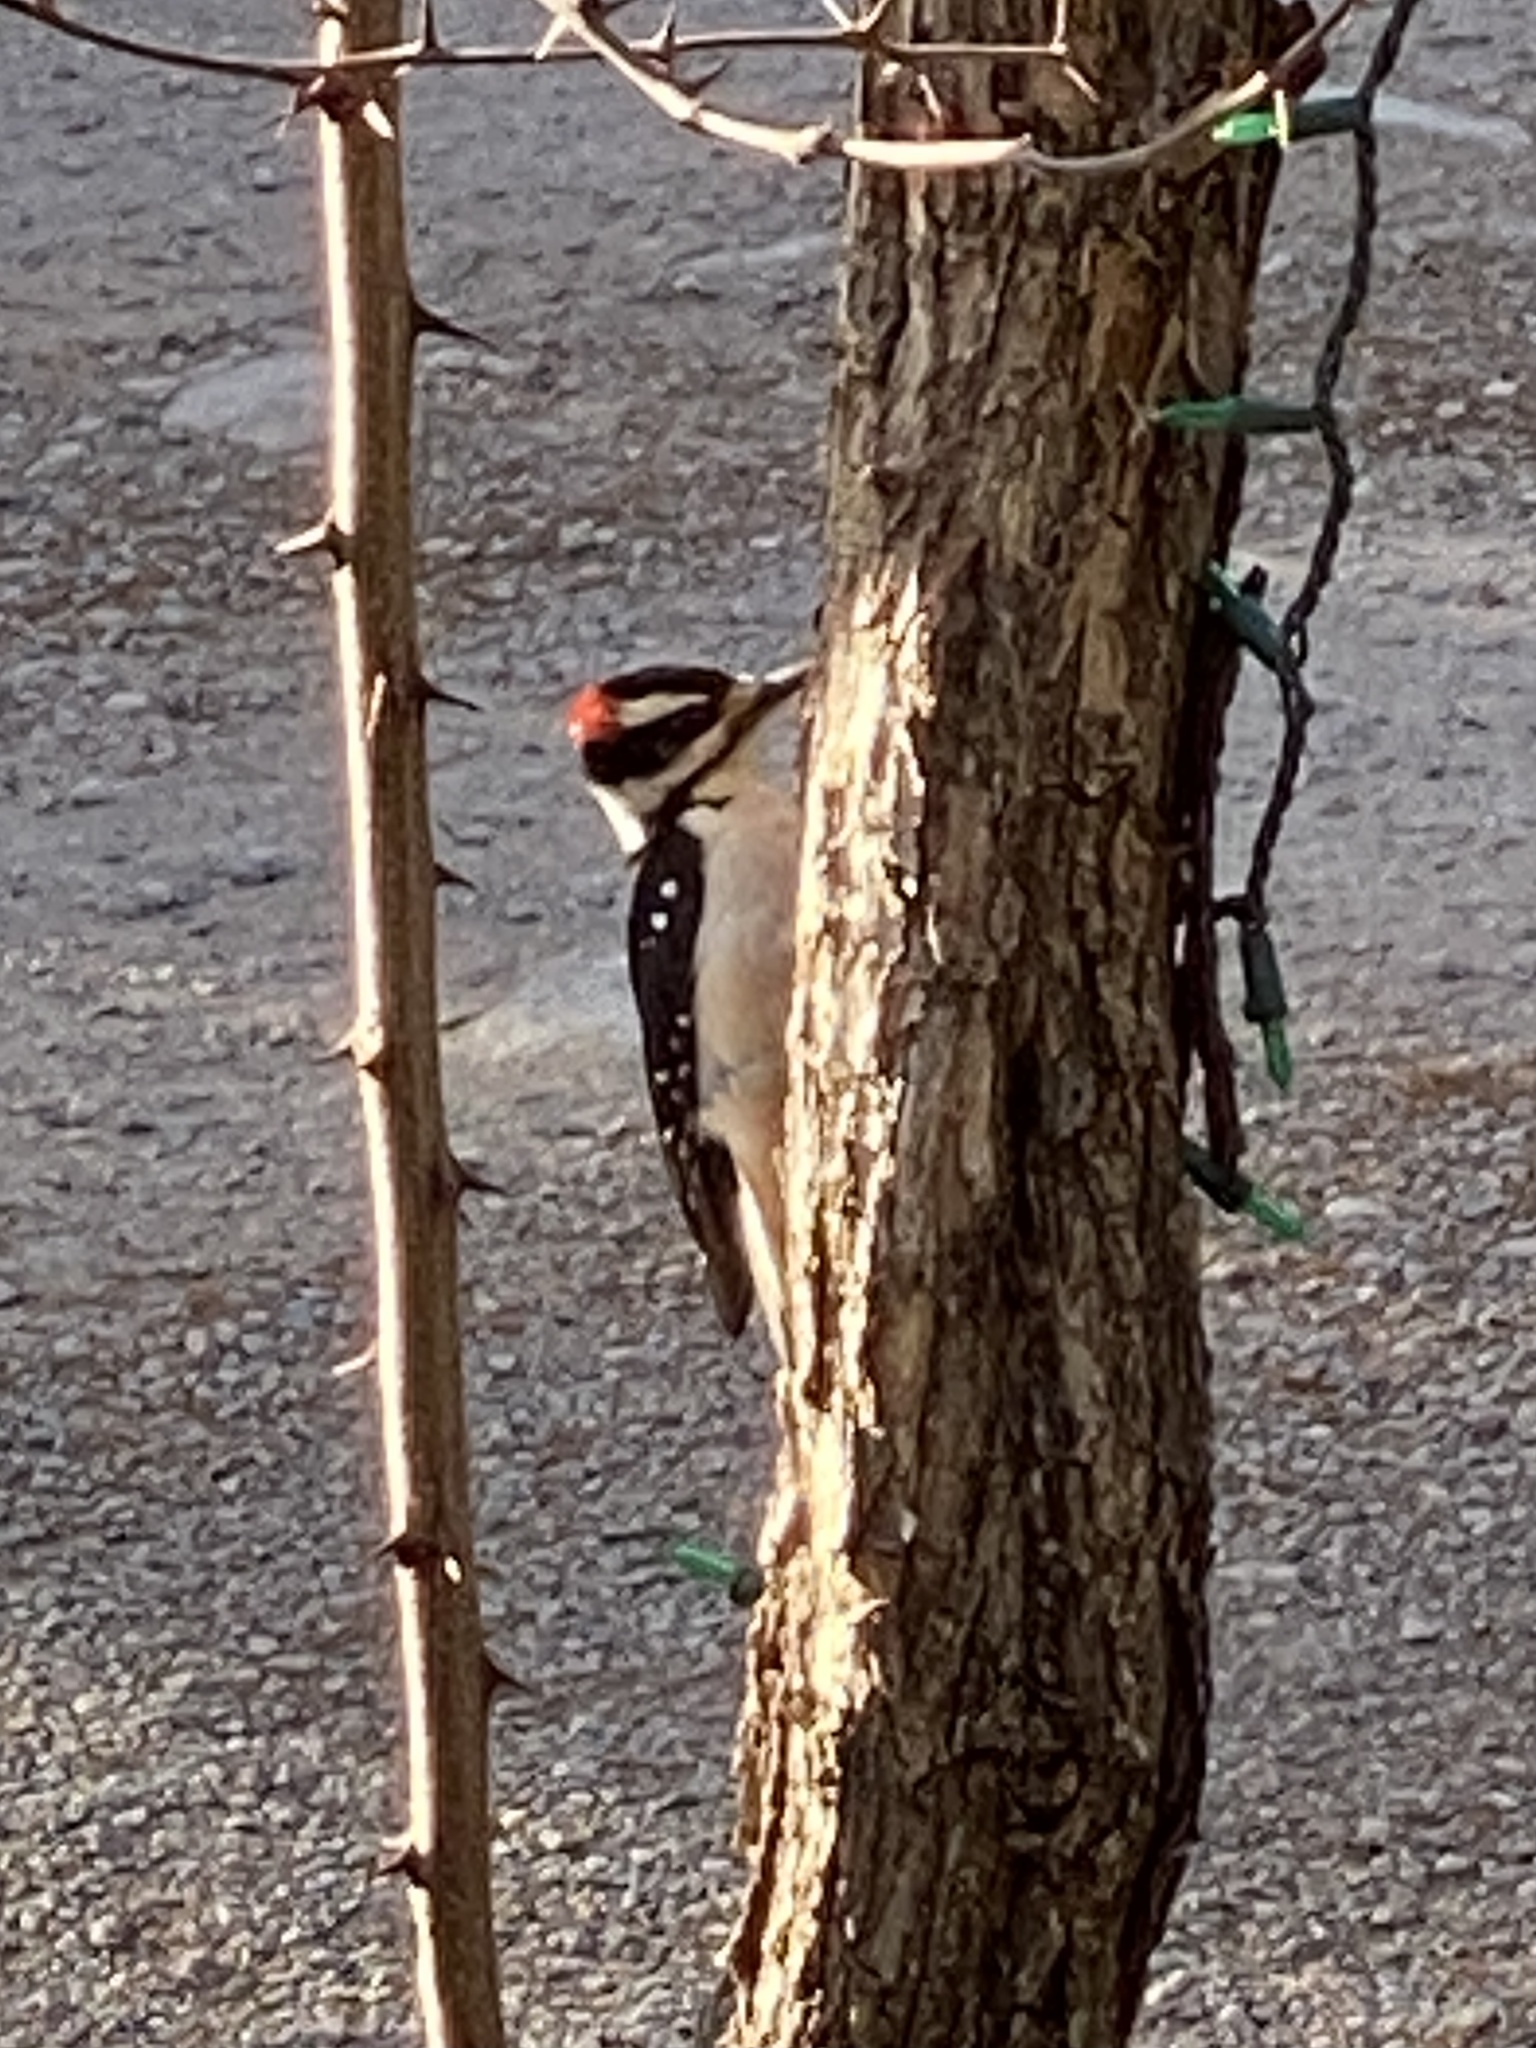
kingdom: Animalia
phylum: Chordata
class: Aves
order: Piciformes
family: Picidae
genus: Leuconotopicus
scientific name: Leuconotopicus villosus
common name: Hairy woodpecker
